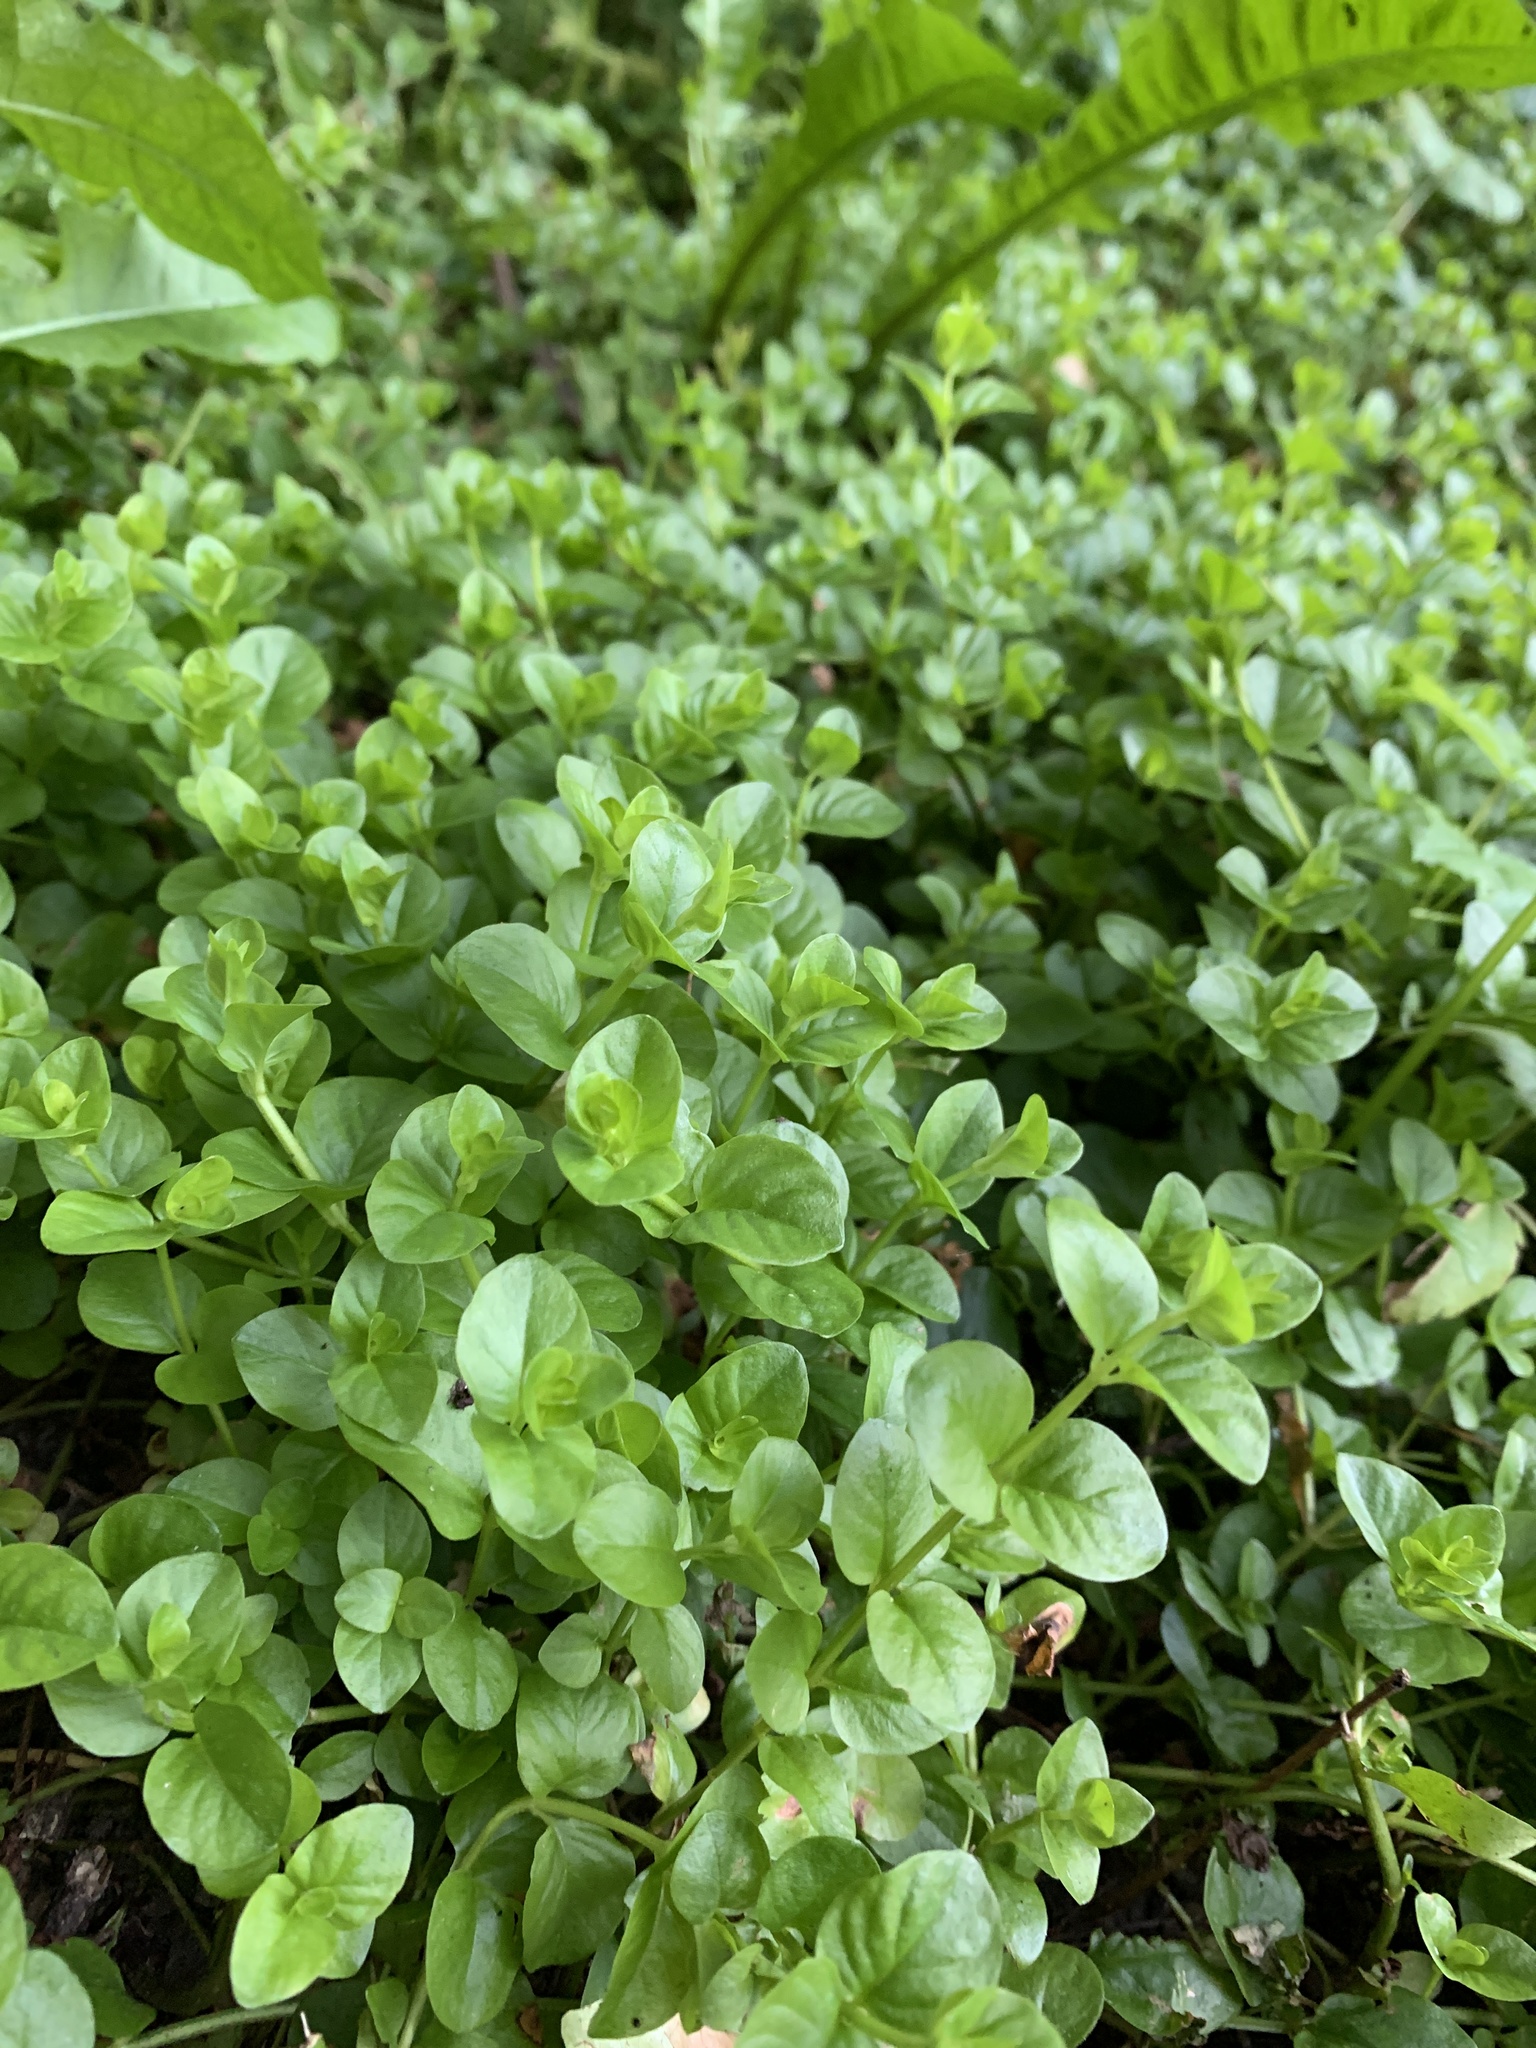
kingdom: Plantae
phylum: Tracheophyta
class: Magnoliopsida
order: Ericales
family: Primulaceae
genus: Lysimachia
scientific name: Lysimachia nummularia
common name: Moneywort
